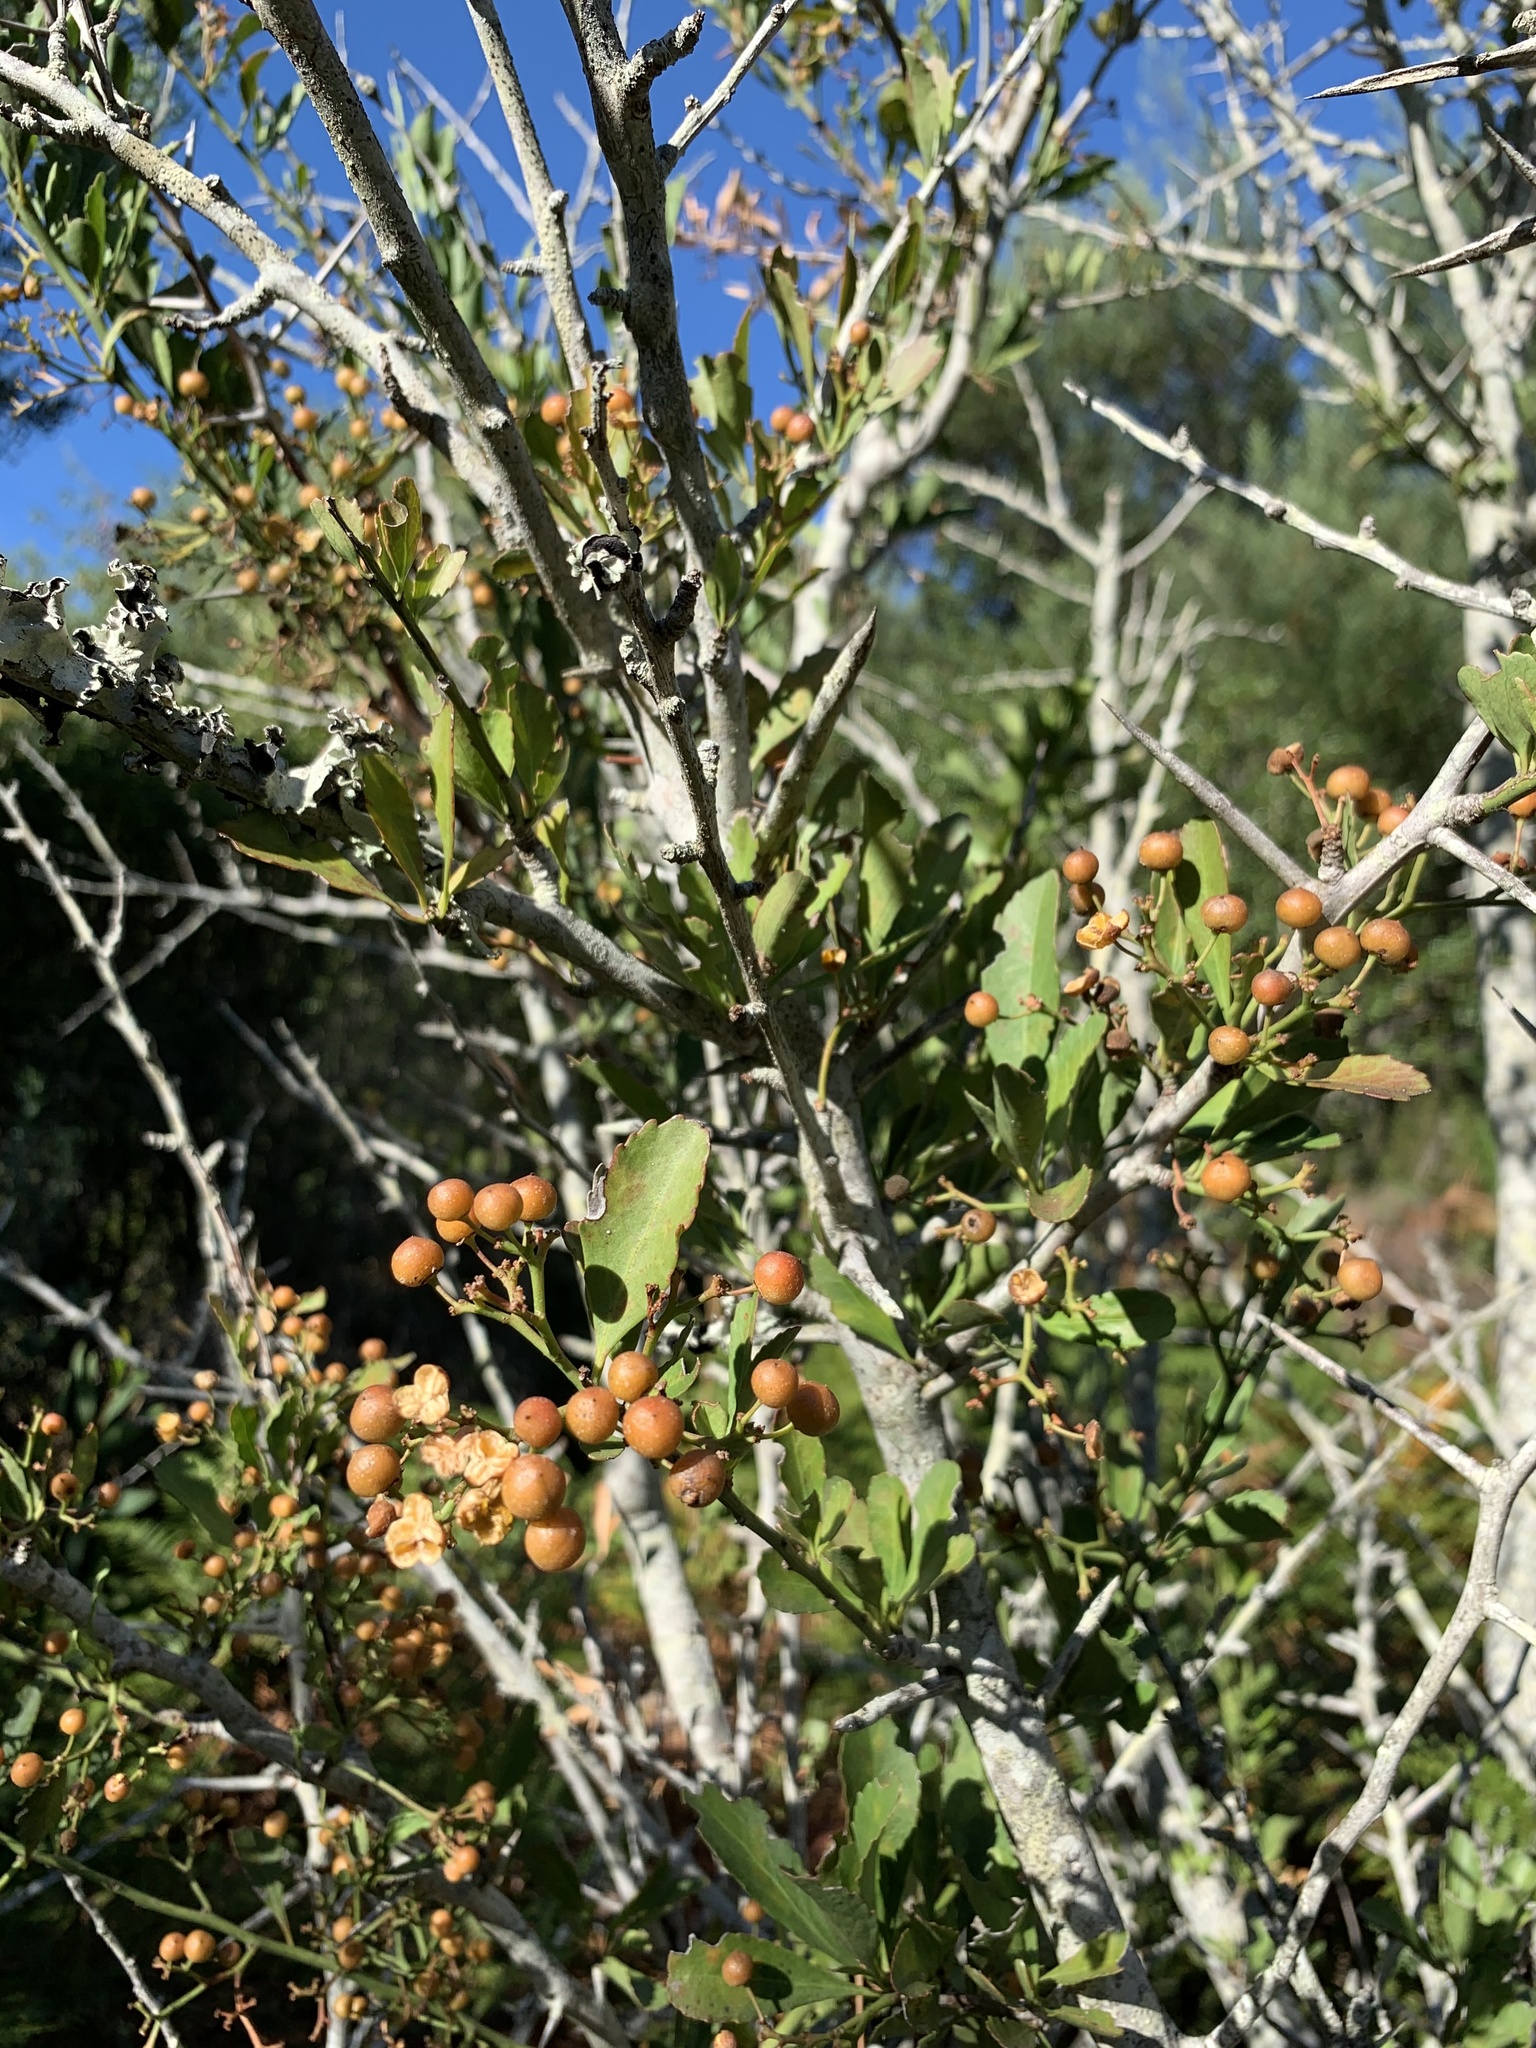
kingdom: Plantae
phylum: Tracheophyta
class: Magnoliopsida
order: Celastrales
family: Celastraceae
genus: Gymnosporia
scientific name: Gymnosporia buxifolia
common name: Common spike-thorn
